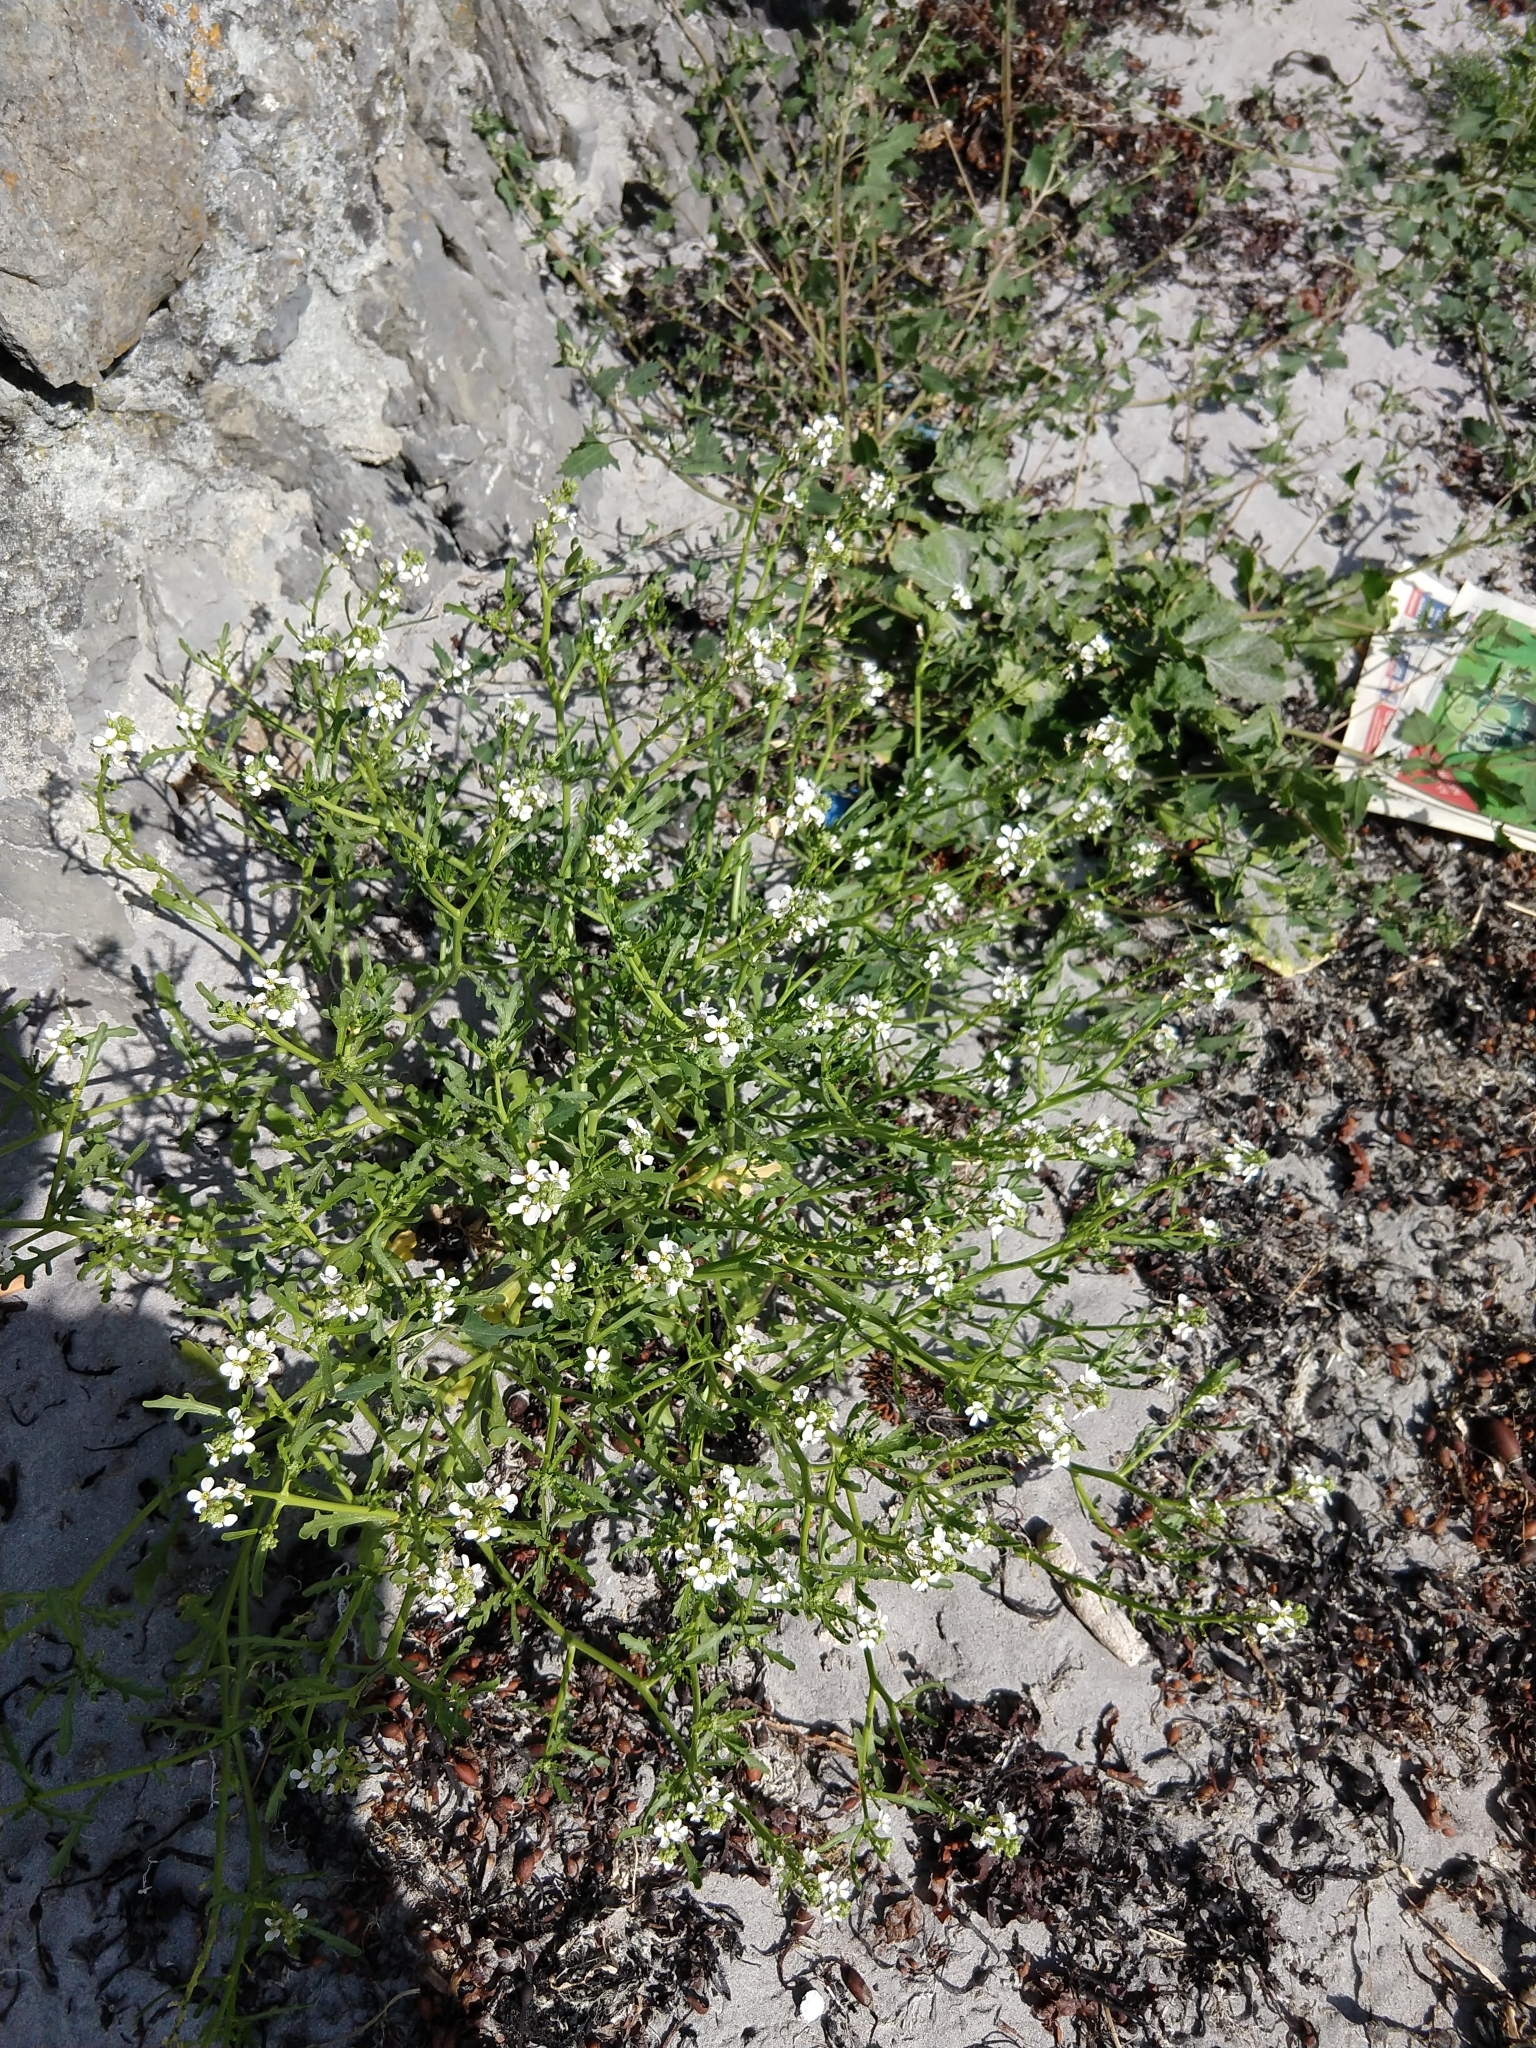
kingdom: Plantae
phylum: Tracheophyta
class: Magnoliopsida
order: Brassicales
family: Brassicaceae
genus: Cakile
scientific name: Cakile maritima
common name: Sea rocket
